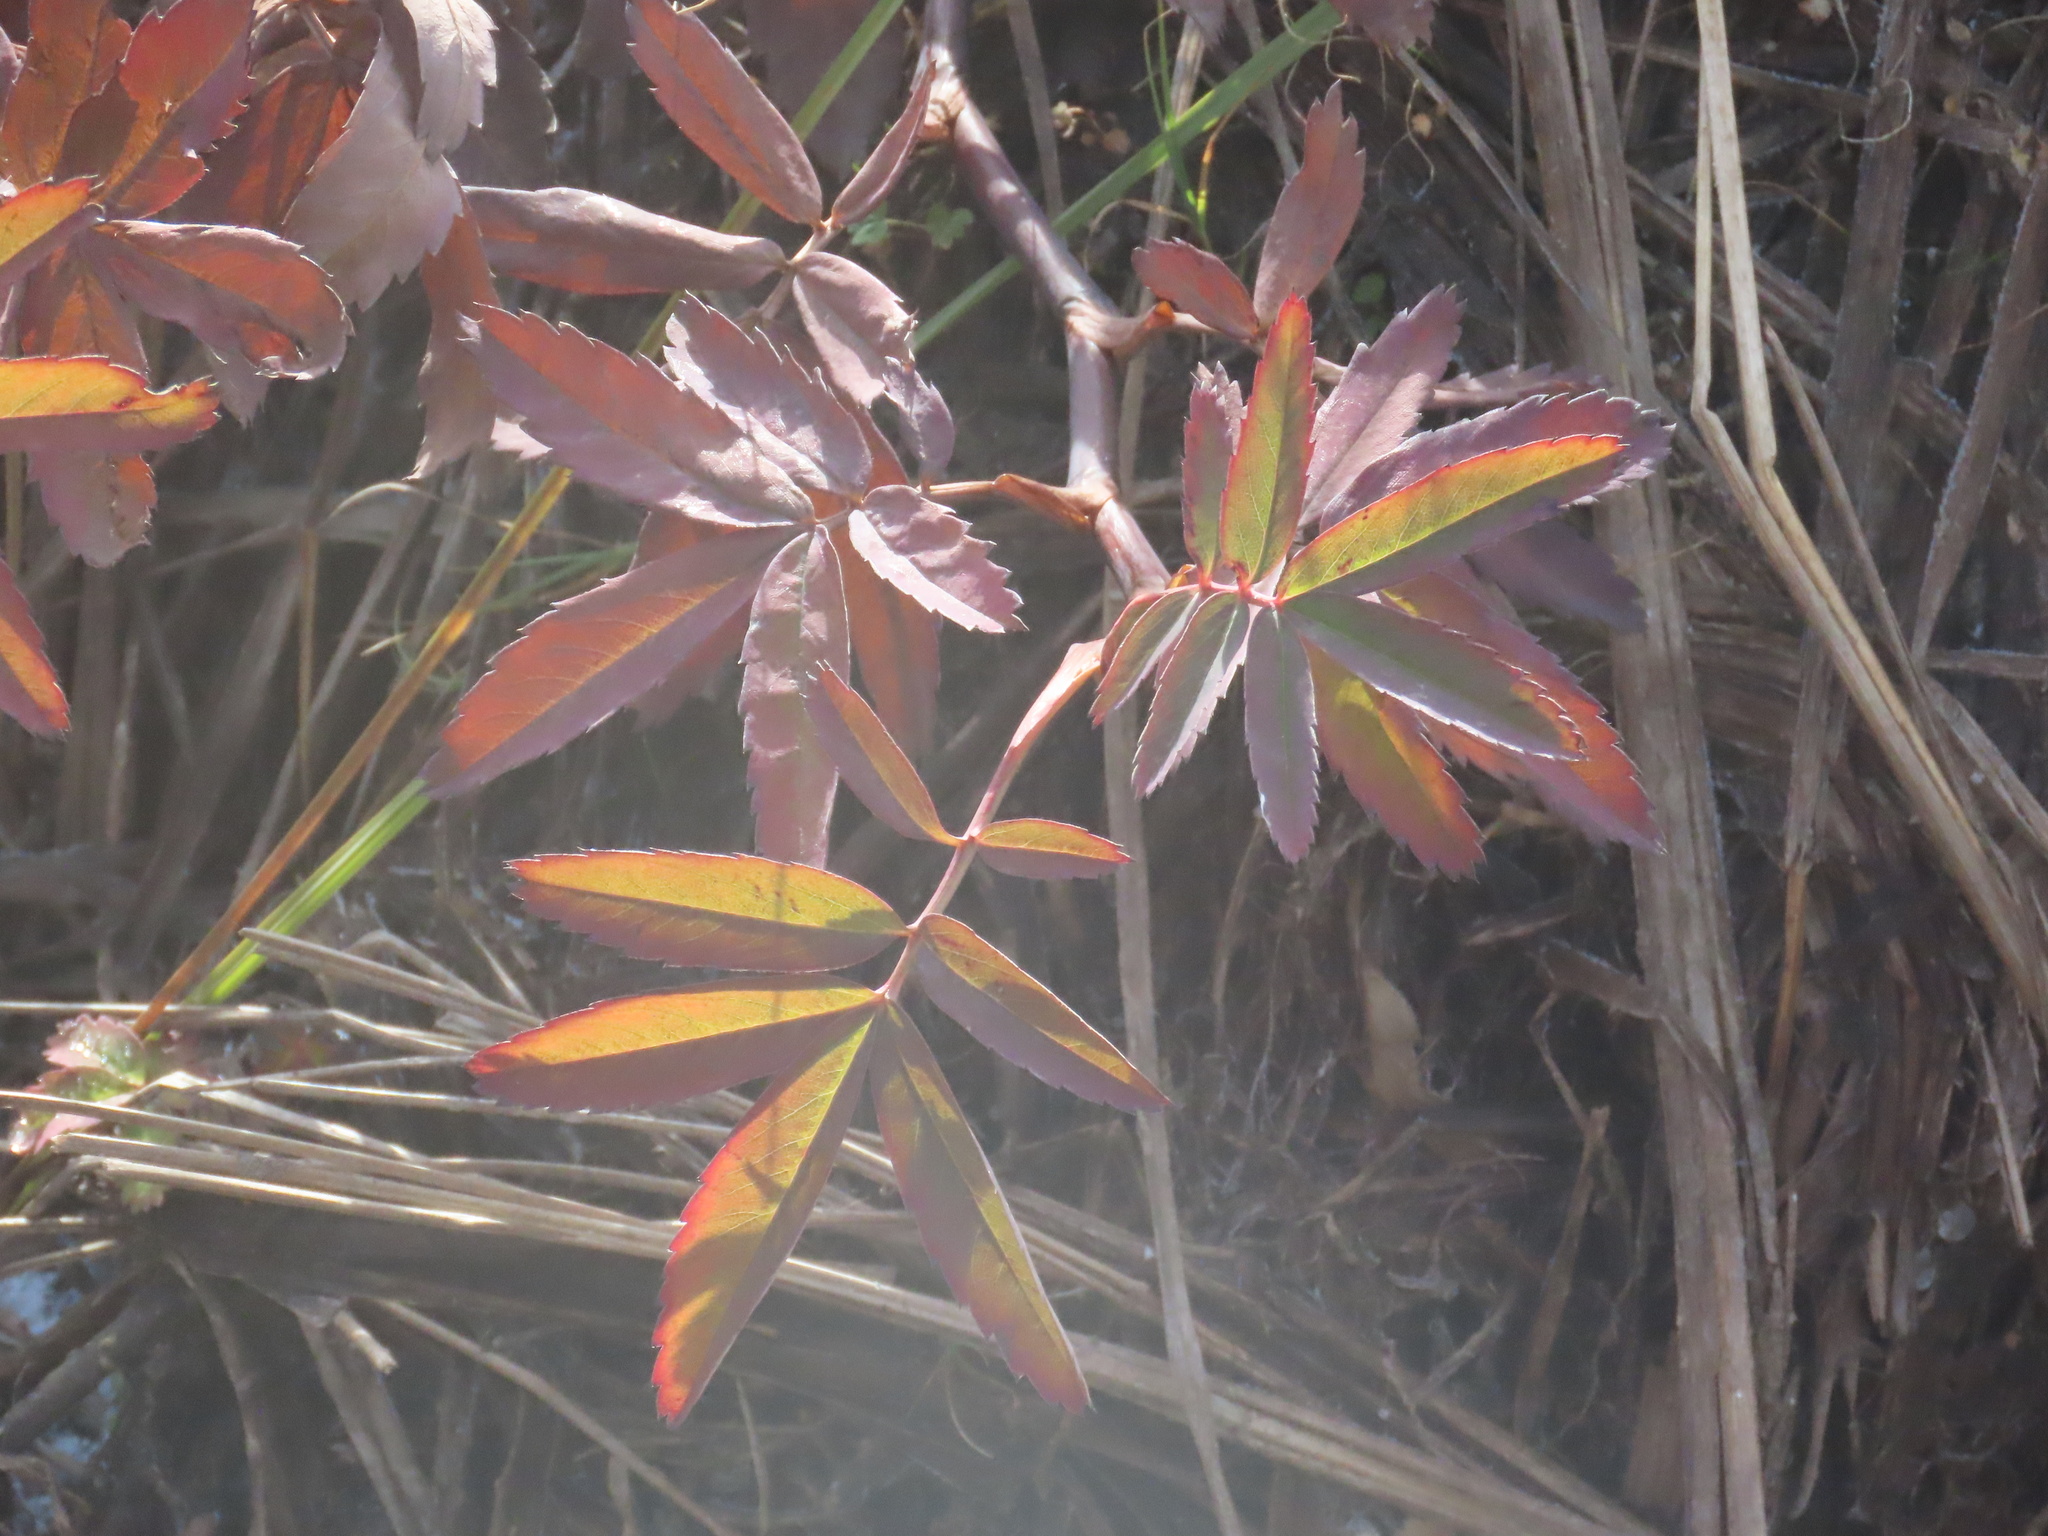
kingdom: Plantae
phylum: Tracheophyta
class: Magnoliopsida
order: Rosales
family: Rosaceae
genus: Comarum
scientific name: Comarum palustre
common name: Marsh cinquefoil
